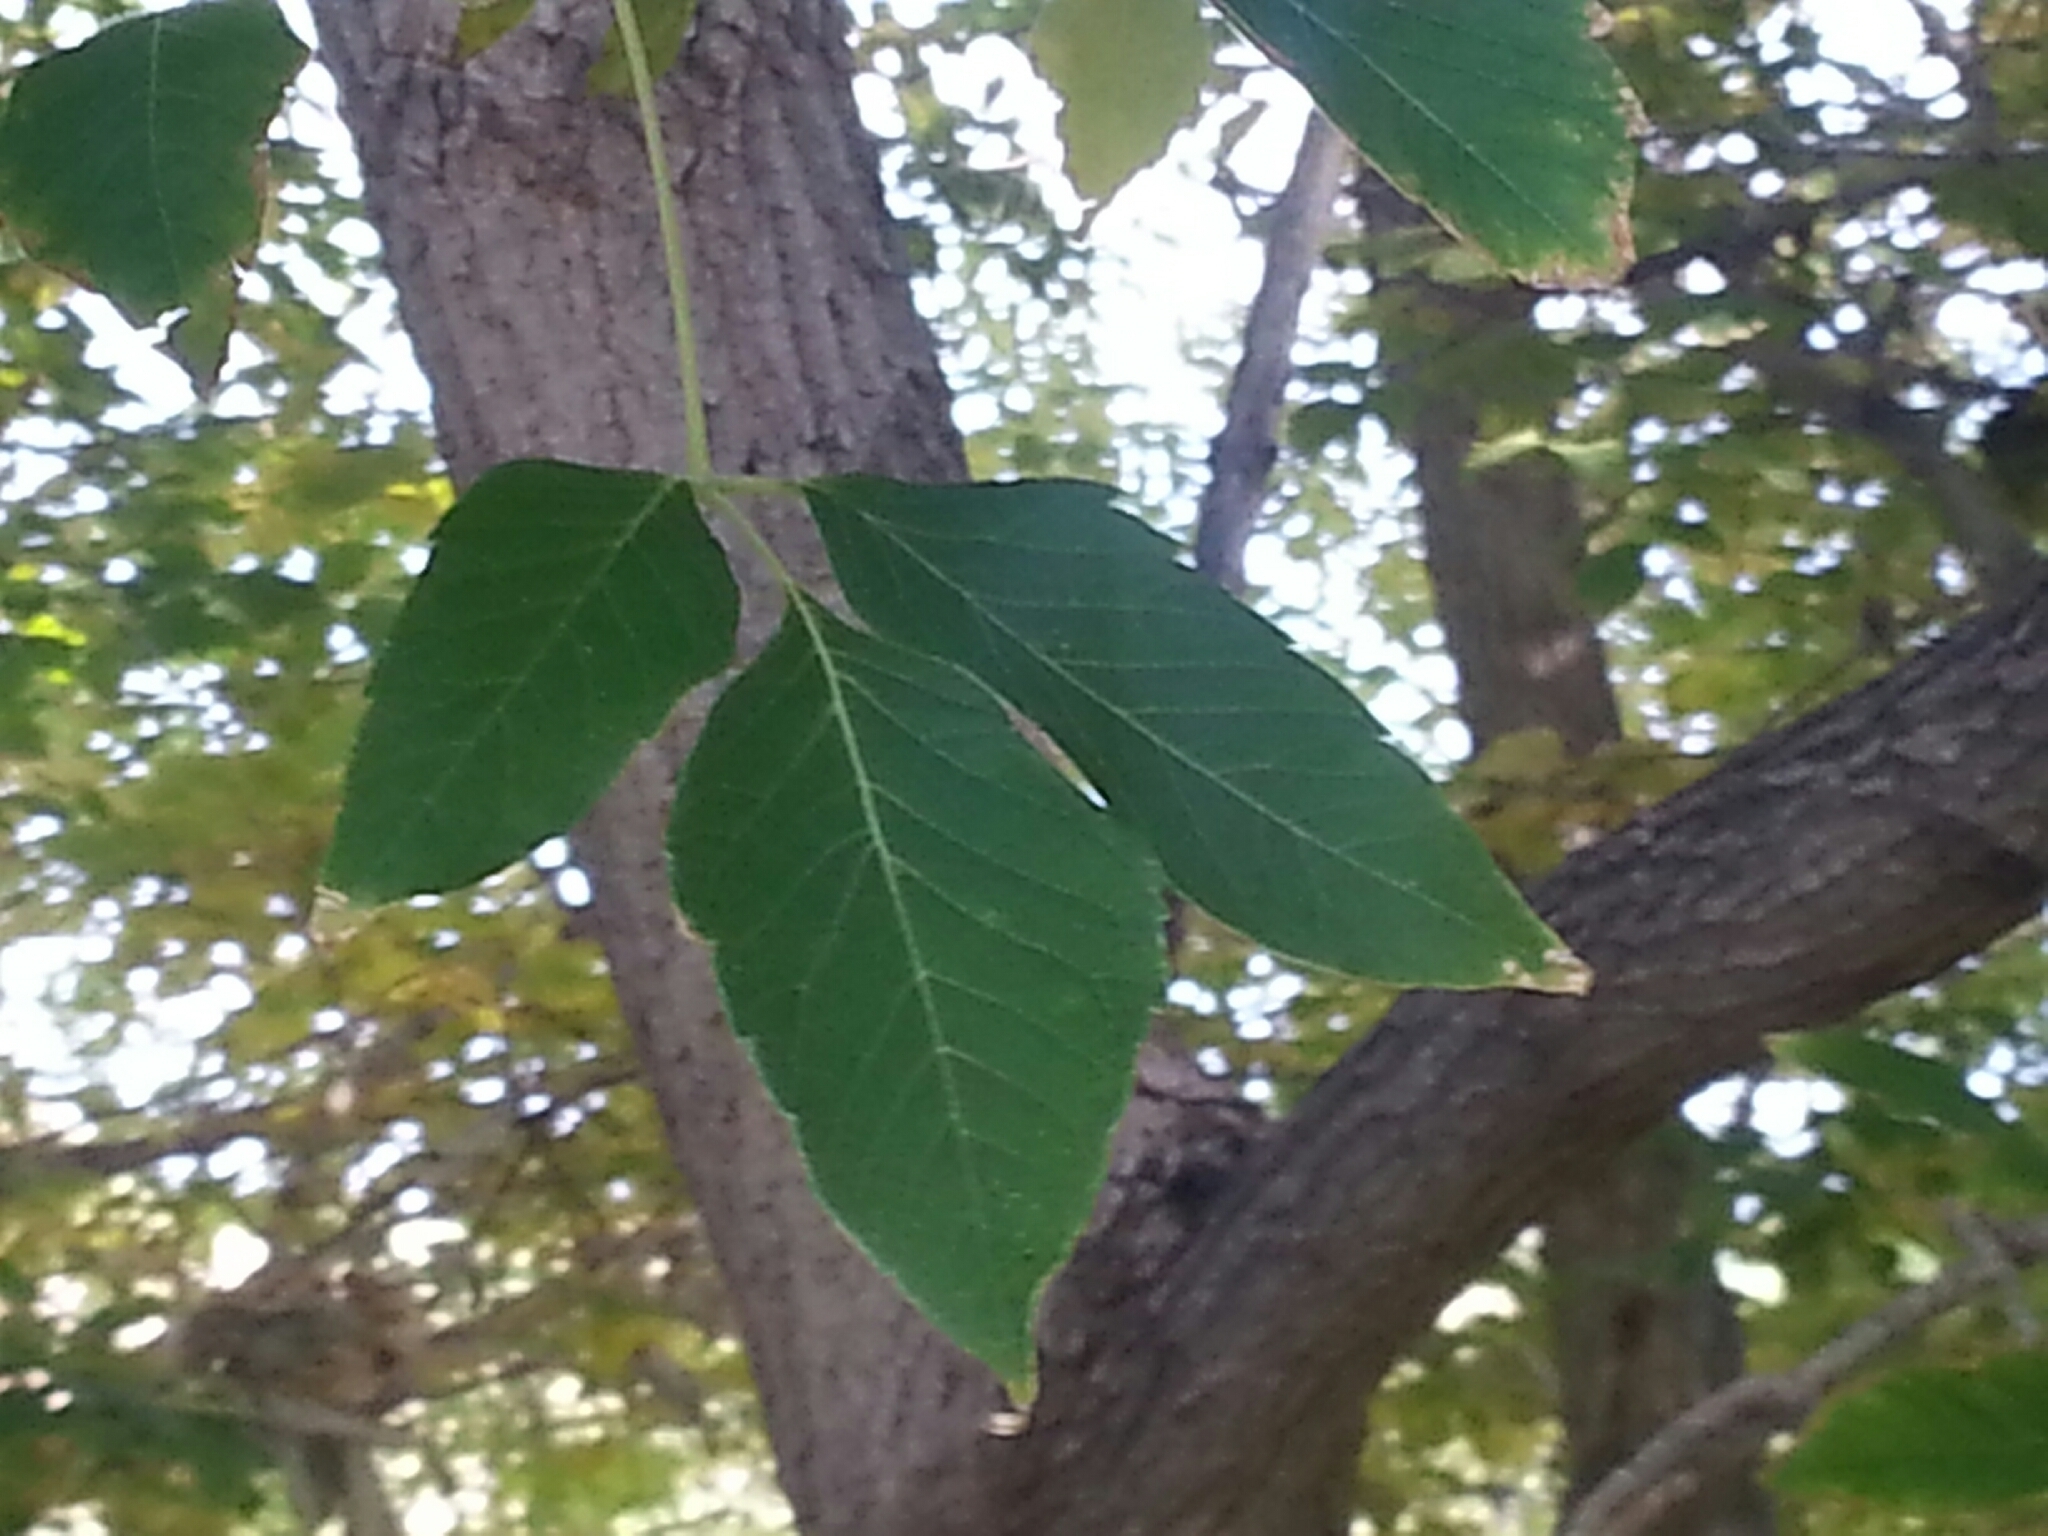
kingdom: Plantae
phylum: Tracheophyta
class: Magnoliopsida
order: Sapindales
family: Sapindaceae
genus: Acer
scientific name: Acer negundo
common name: Ashleaf maple
